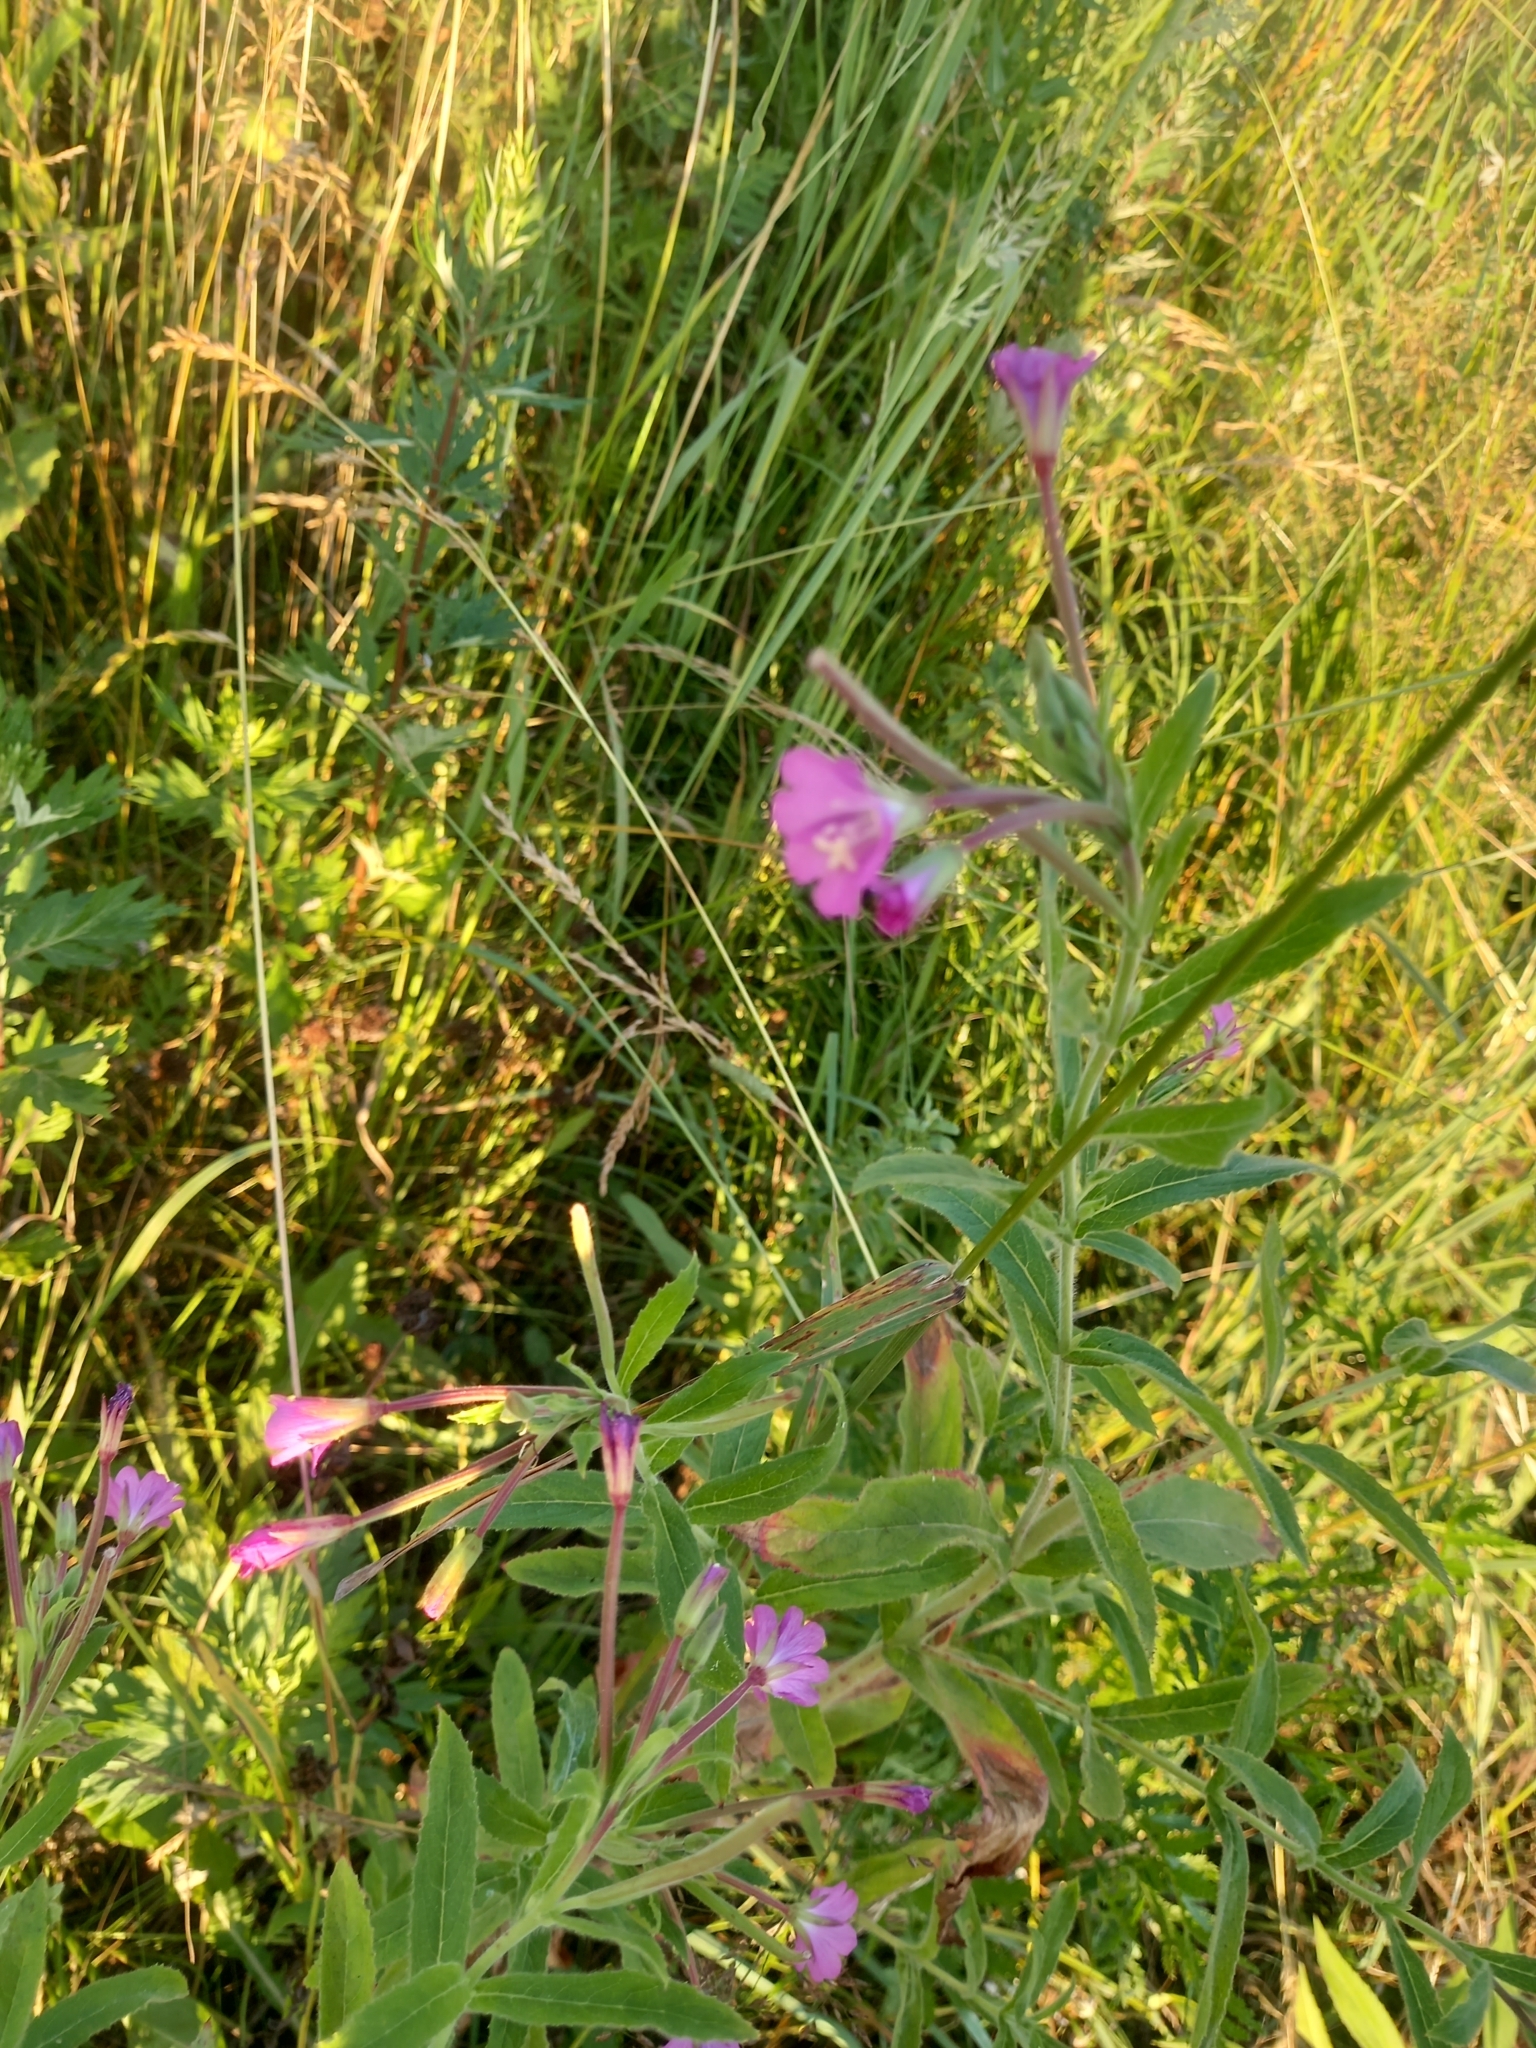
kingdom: Plantae
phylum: Tracheophyta
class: Magnoliopsida
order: Myrtales
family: Onagraceae
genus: Epilobium
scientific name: Epilobium hirsutum
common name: Great willowherb
